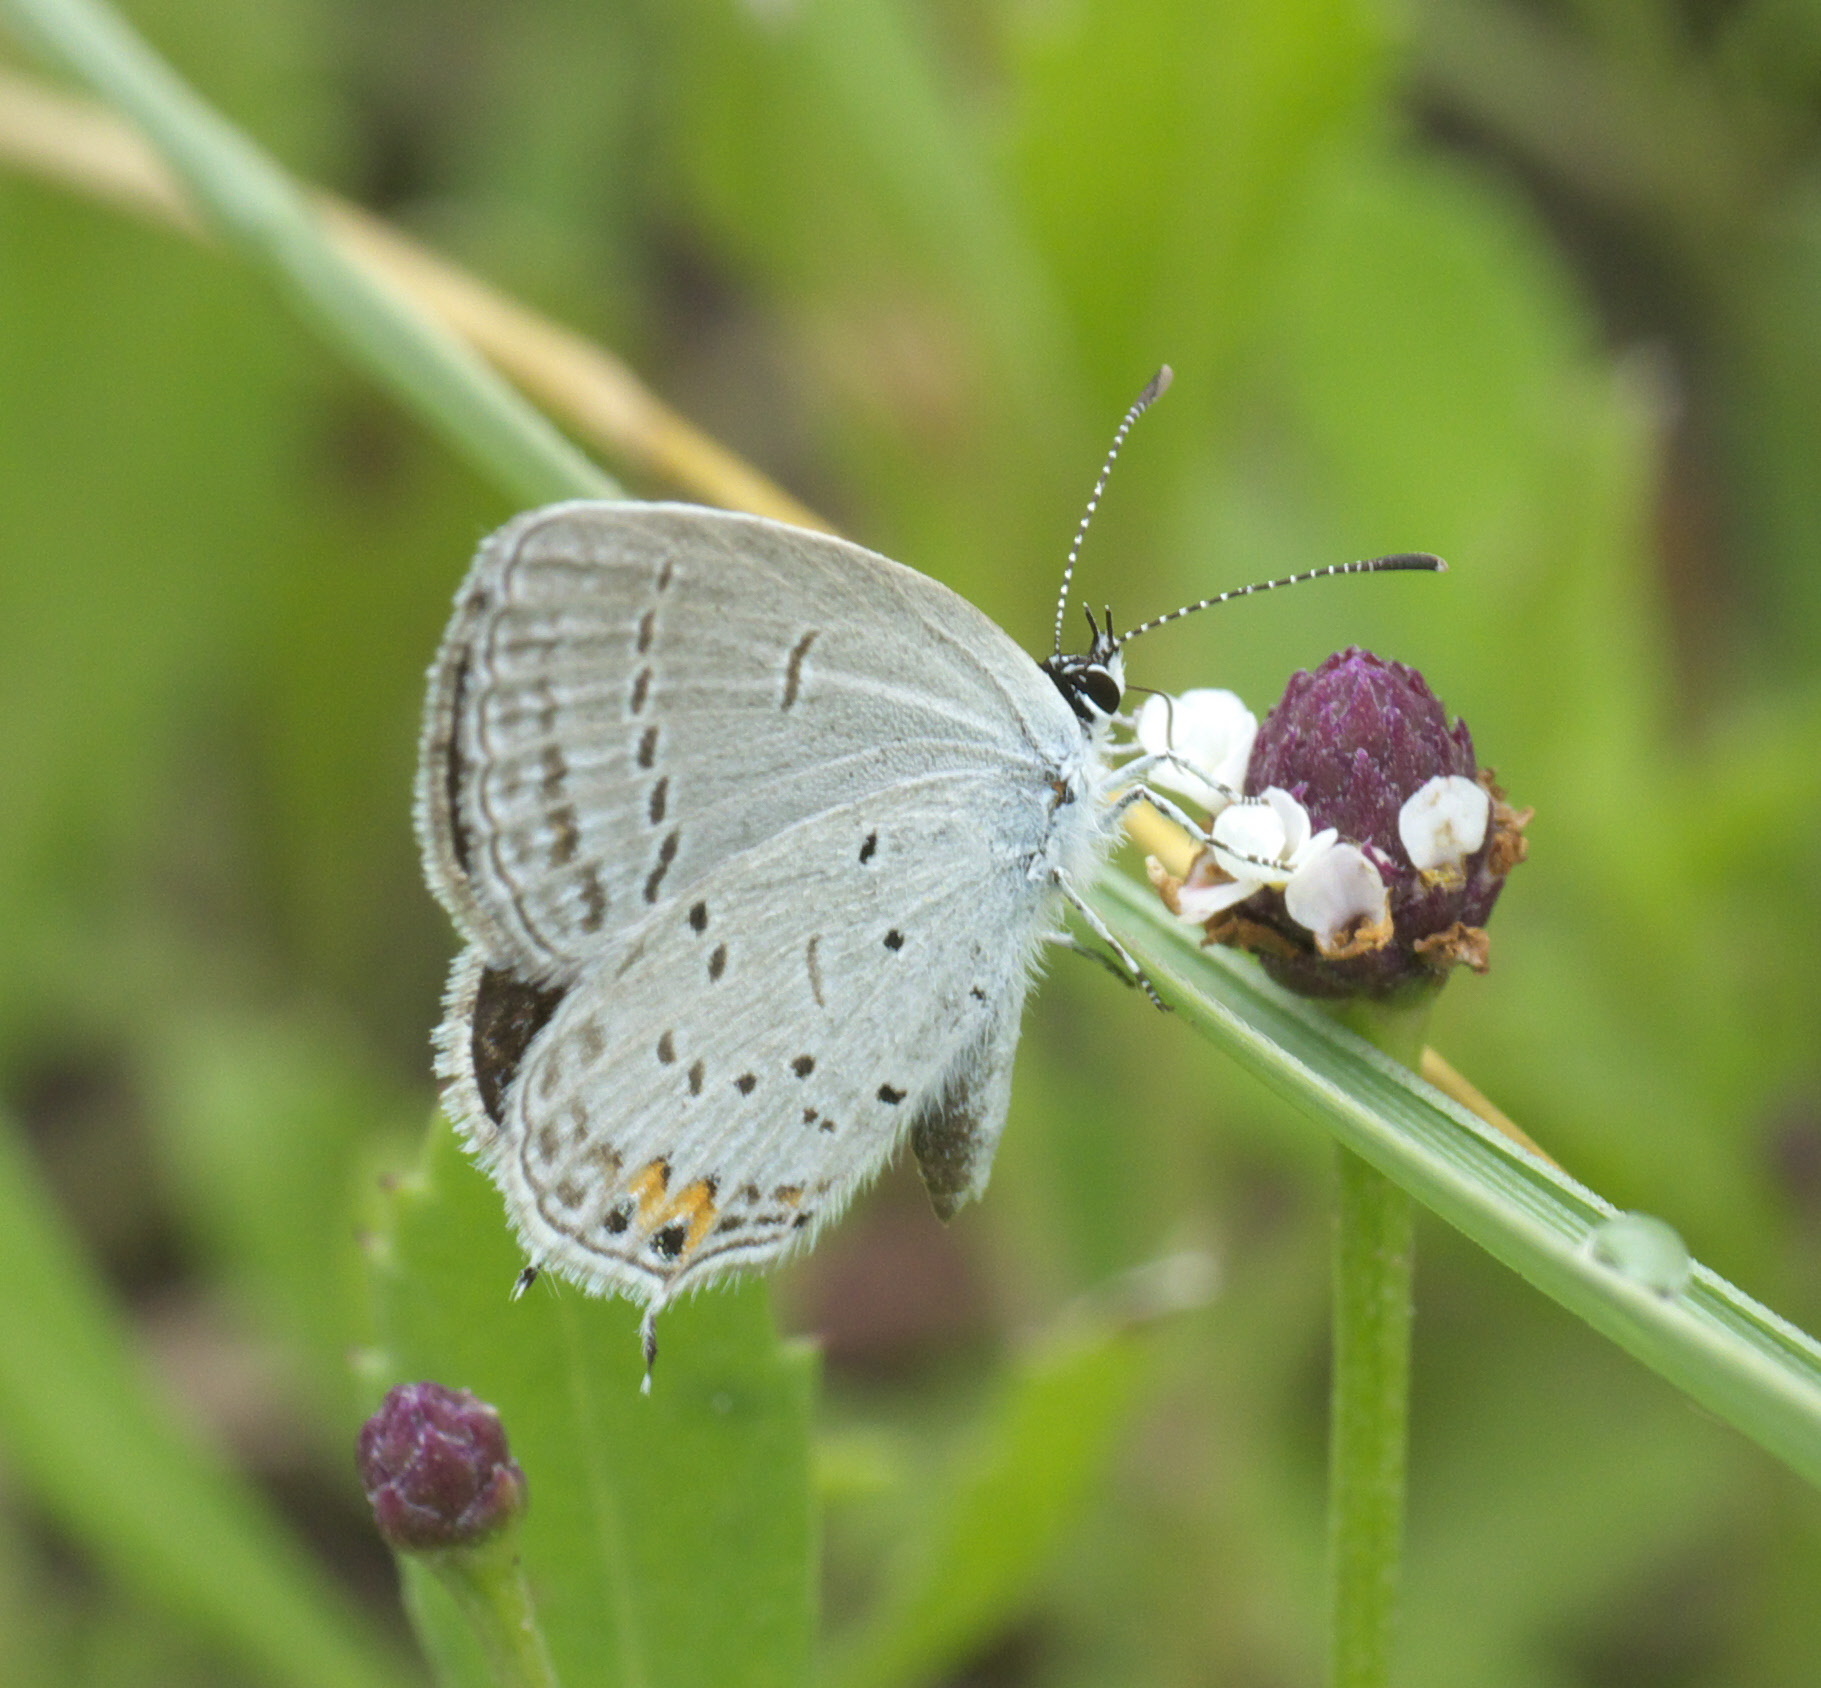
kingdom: Animalia
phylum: Arthropoda
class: Insecta
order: Lepidoptera
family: Lycaenidae
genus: Elkalyce
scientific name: Elkalyce comyntas
